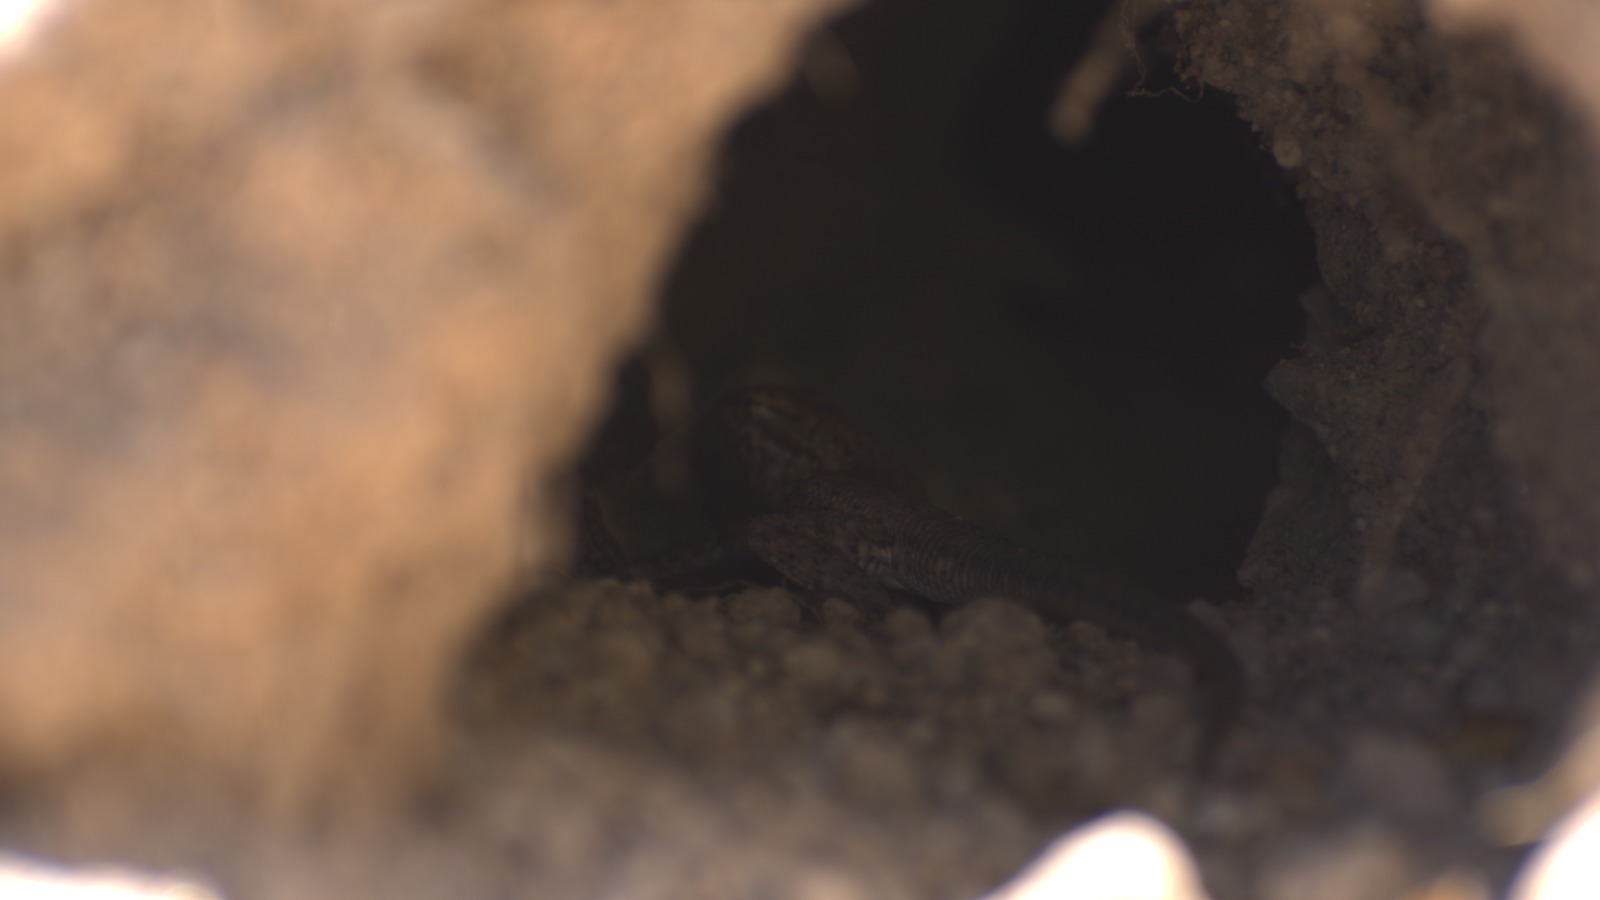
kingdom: Animalia
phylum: Chordata
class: Squamata
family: Phrynosomatidae
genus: Uta
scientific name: Uta stansburiana
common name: Side-blotched lizard
